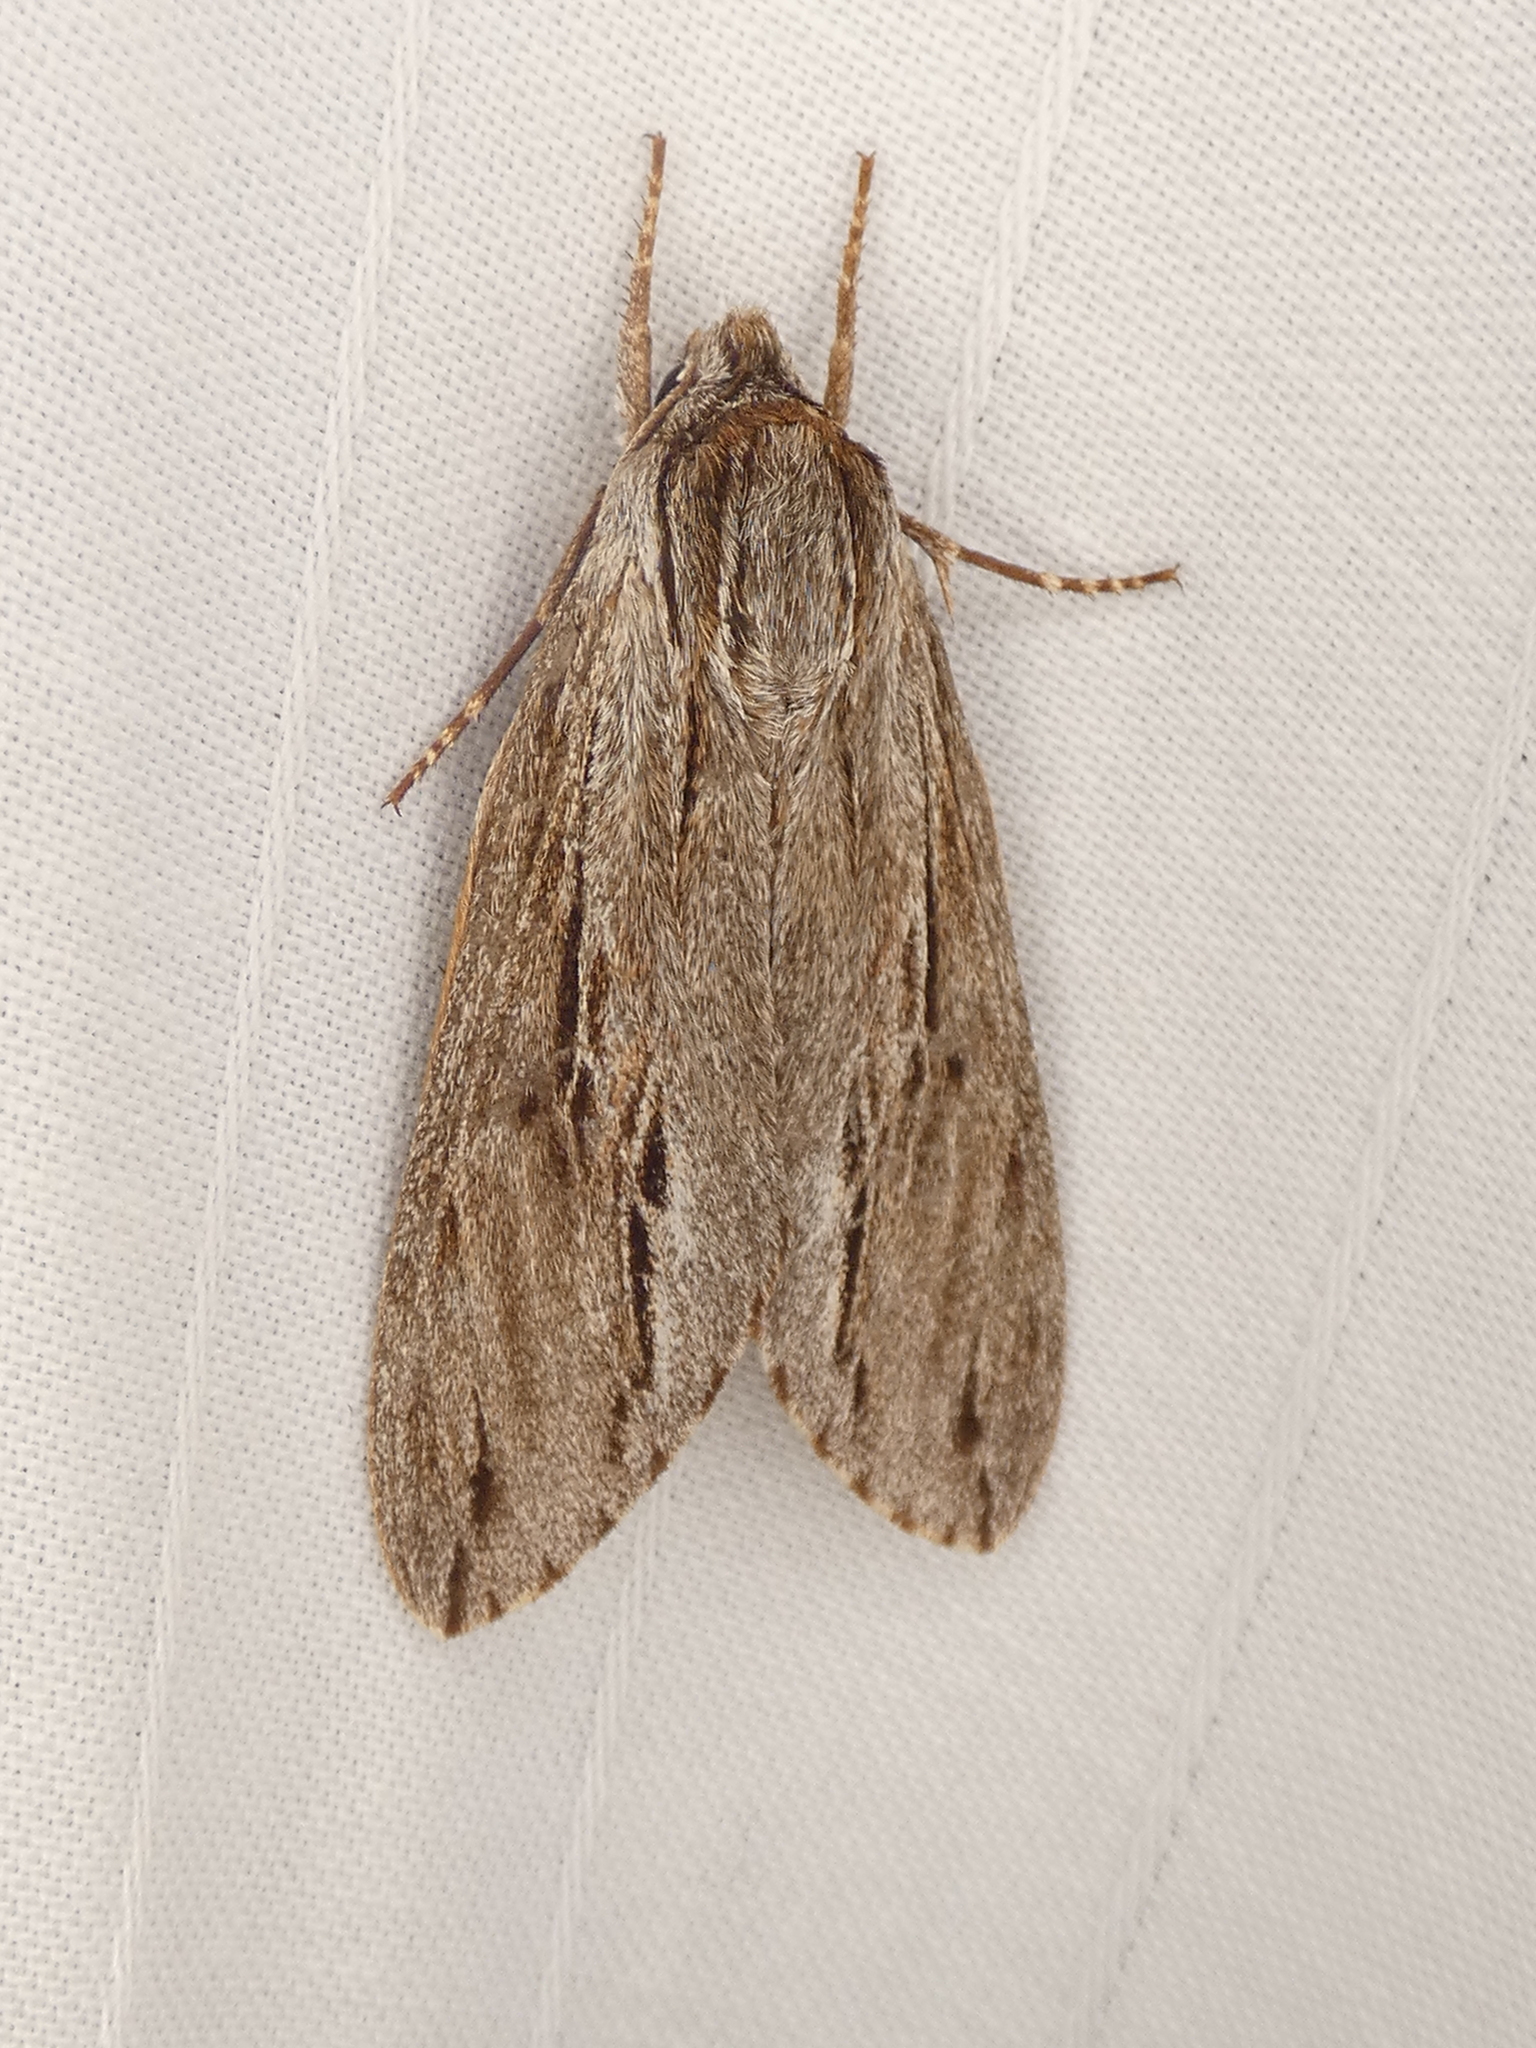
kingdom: Animalia
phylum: Arthropoda
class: Insecta
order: Lepidoptera
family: Sphingidae
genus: Isoparce
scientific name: Isoparce cupressi
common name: Cypress sphinx
